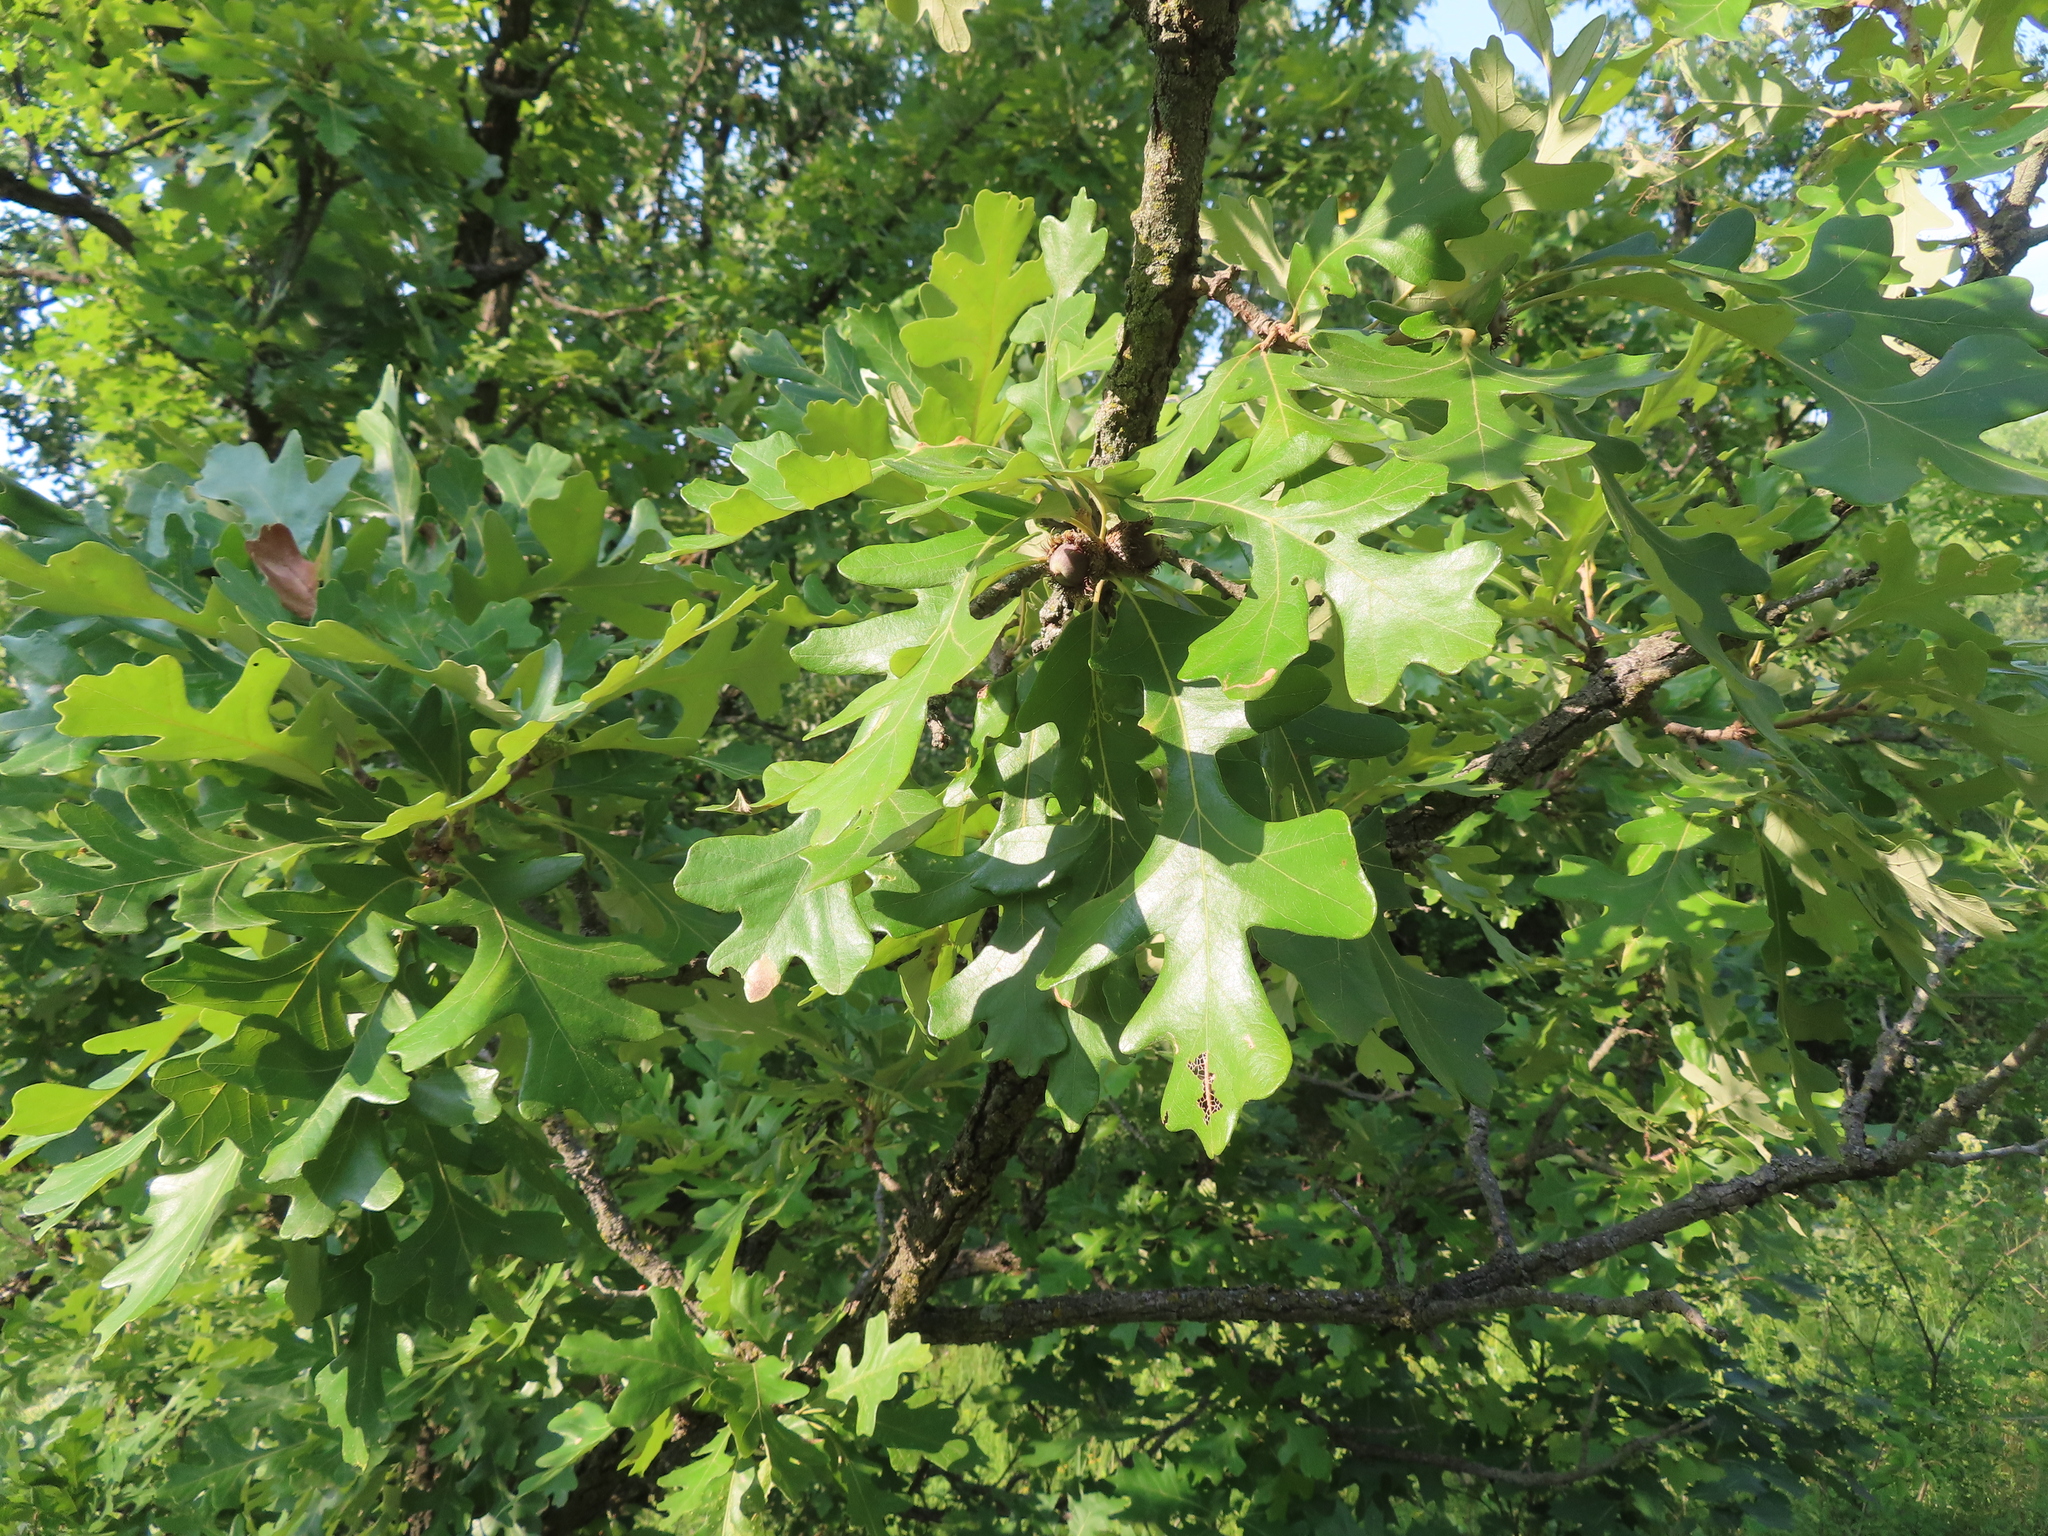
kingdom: Plantae
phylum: Tracheophyta
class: Magnoliopsida
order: Fagales
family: Fagaceae
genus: Quercus
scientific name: Quercus macrocarpa
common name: Bur oak
